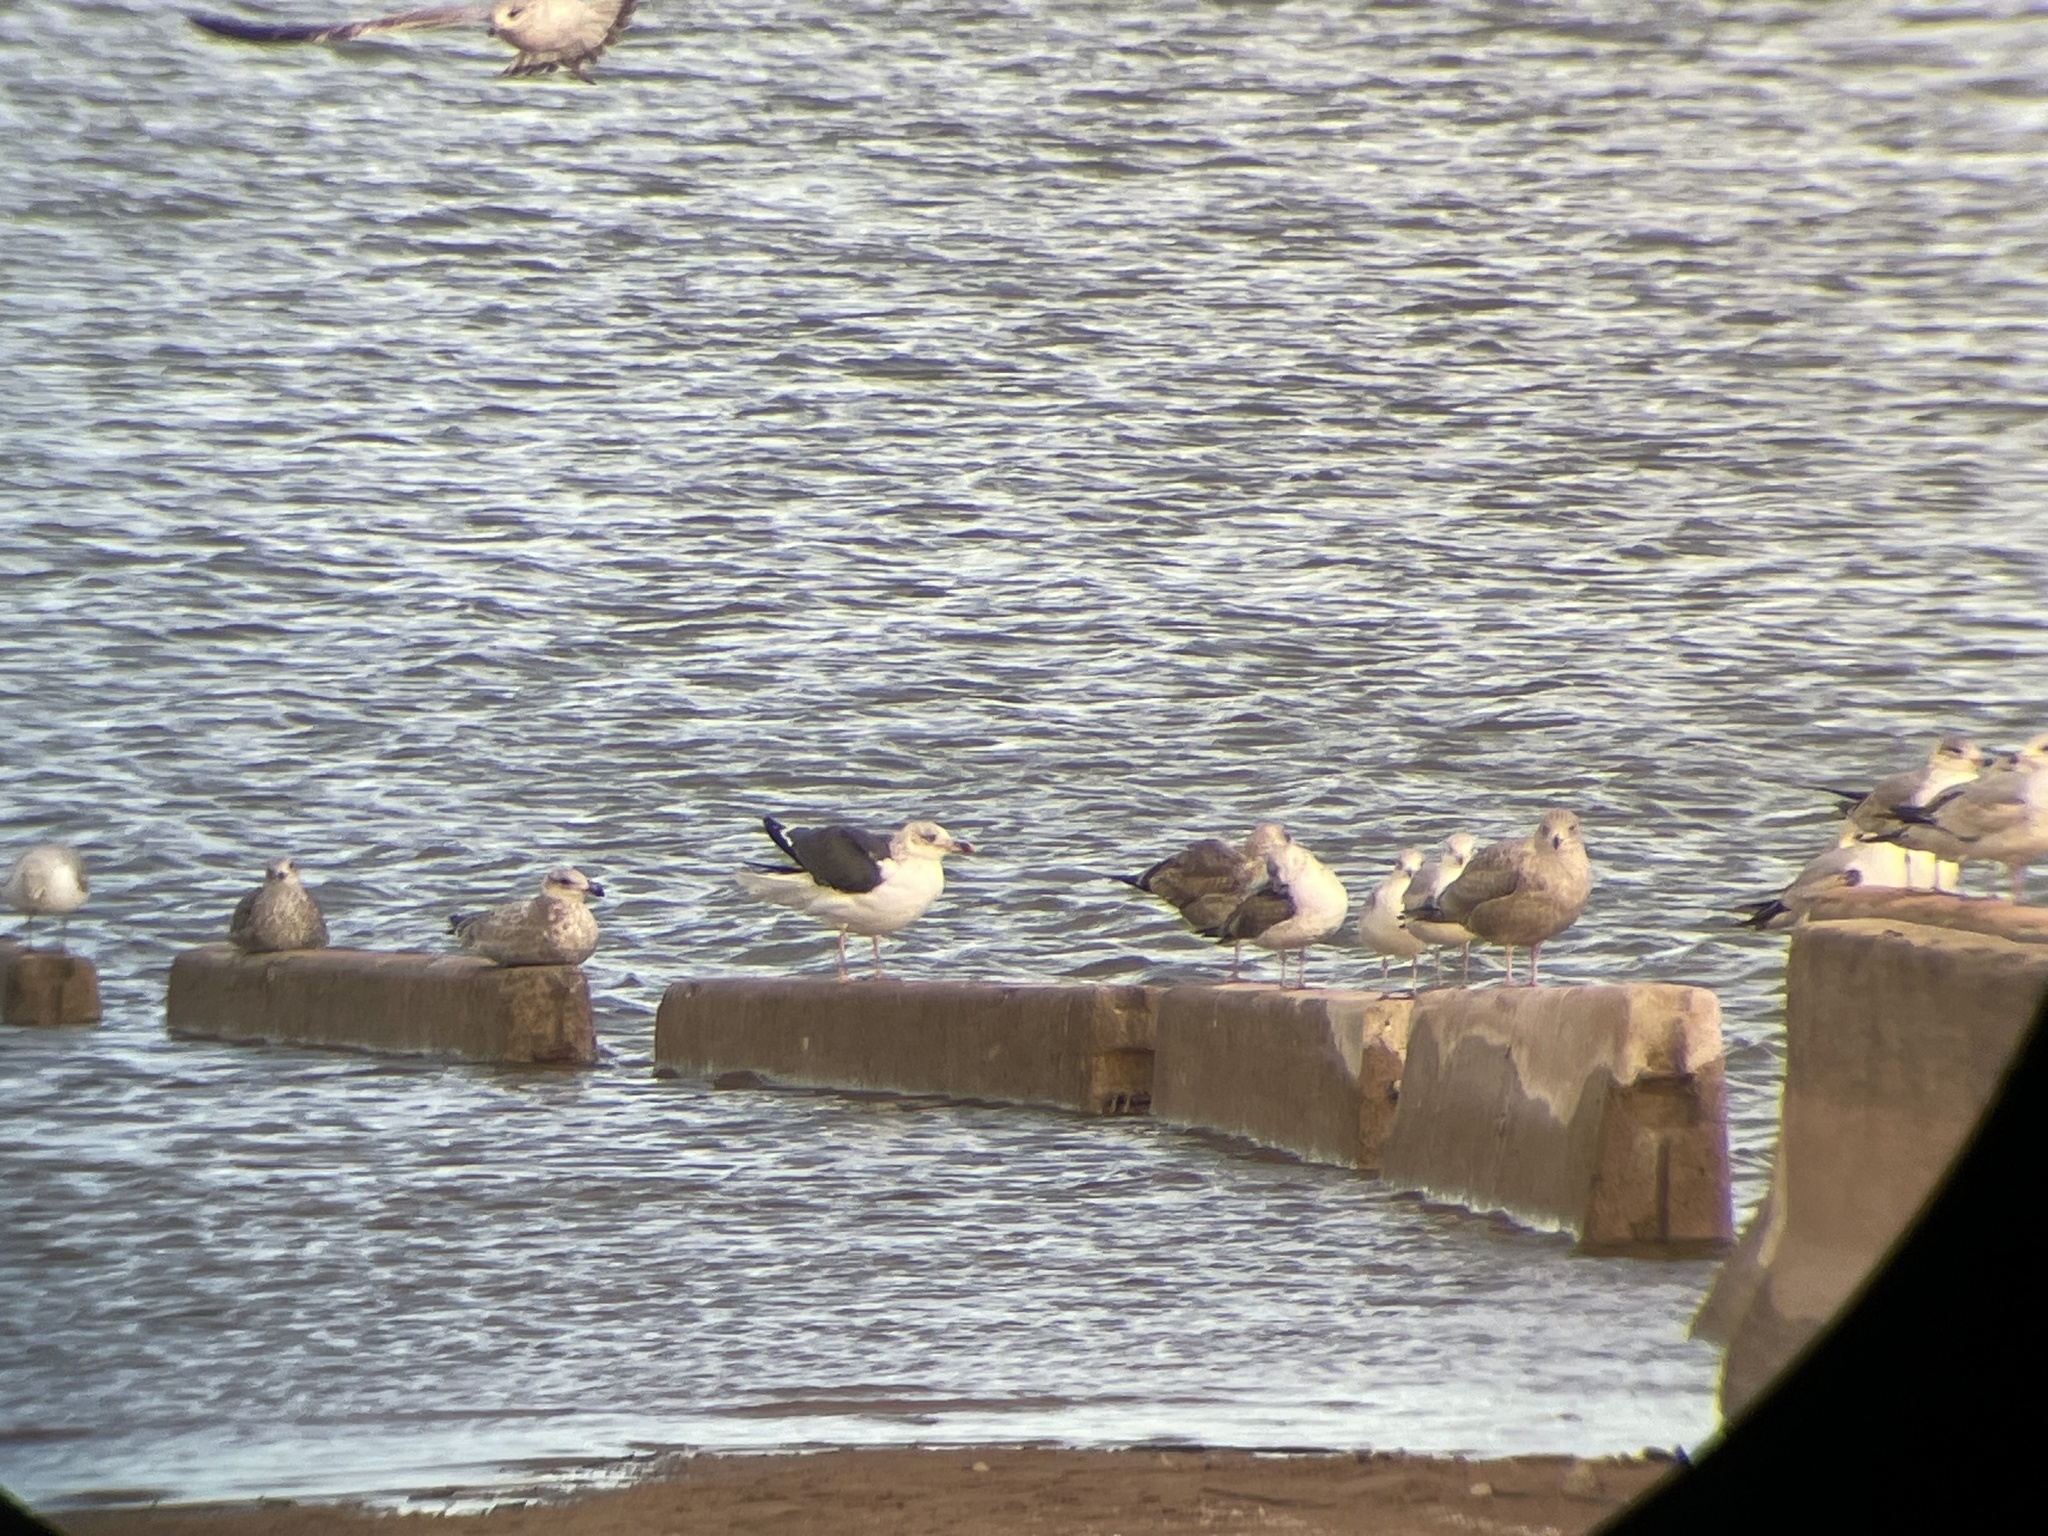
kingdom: Animalia
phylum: Chordata
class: Aves
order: Charadriiformes
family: Laridae
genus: Larus
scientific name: Larus fuscus
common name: Lesser black-backed gull
